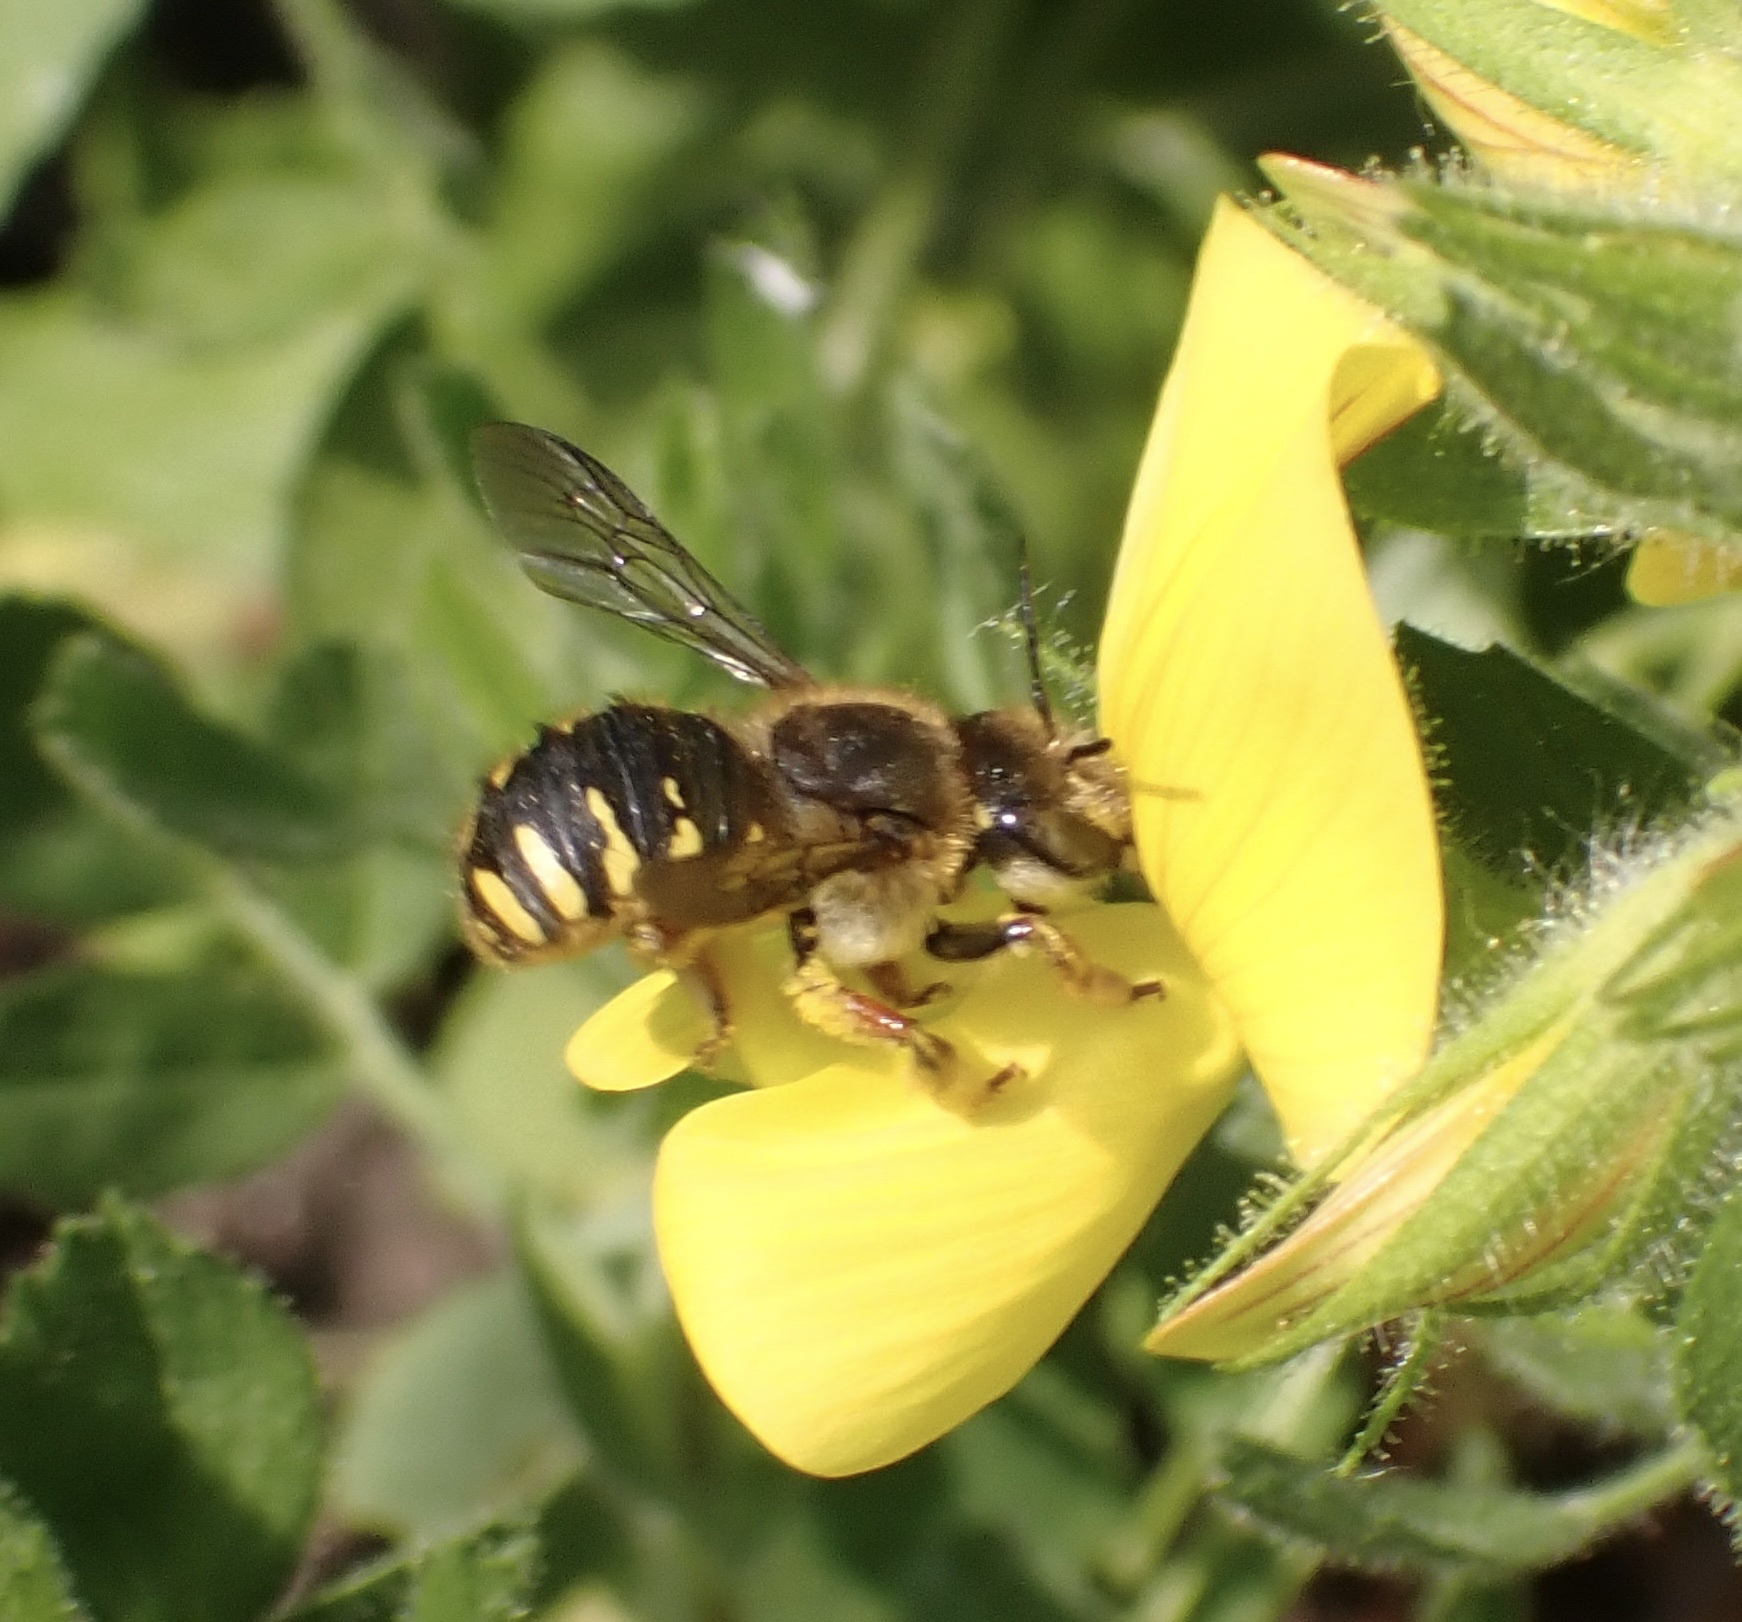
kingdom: Animalia
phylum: Arthropoda
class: Insecta
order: Hymenoptera
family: Megachilidae
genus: Anthidium
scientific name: Anthidium manicatum
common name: Wool carder bee
